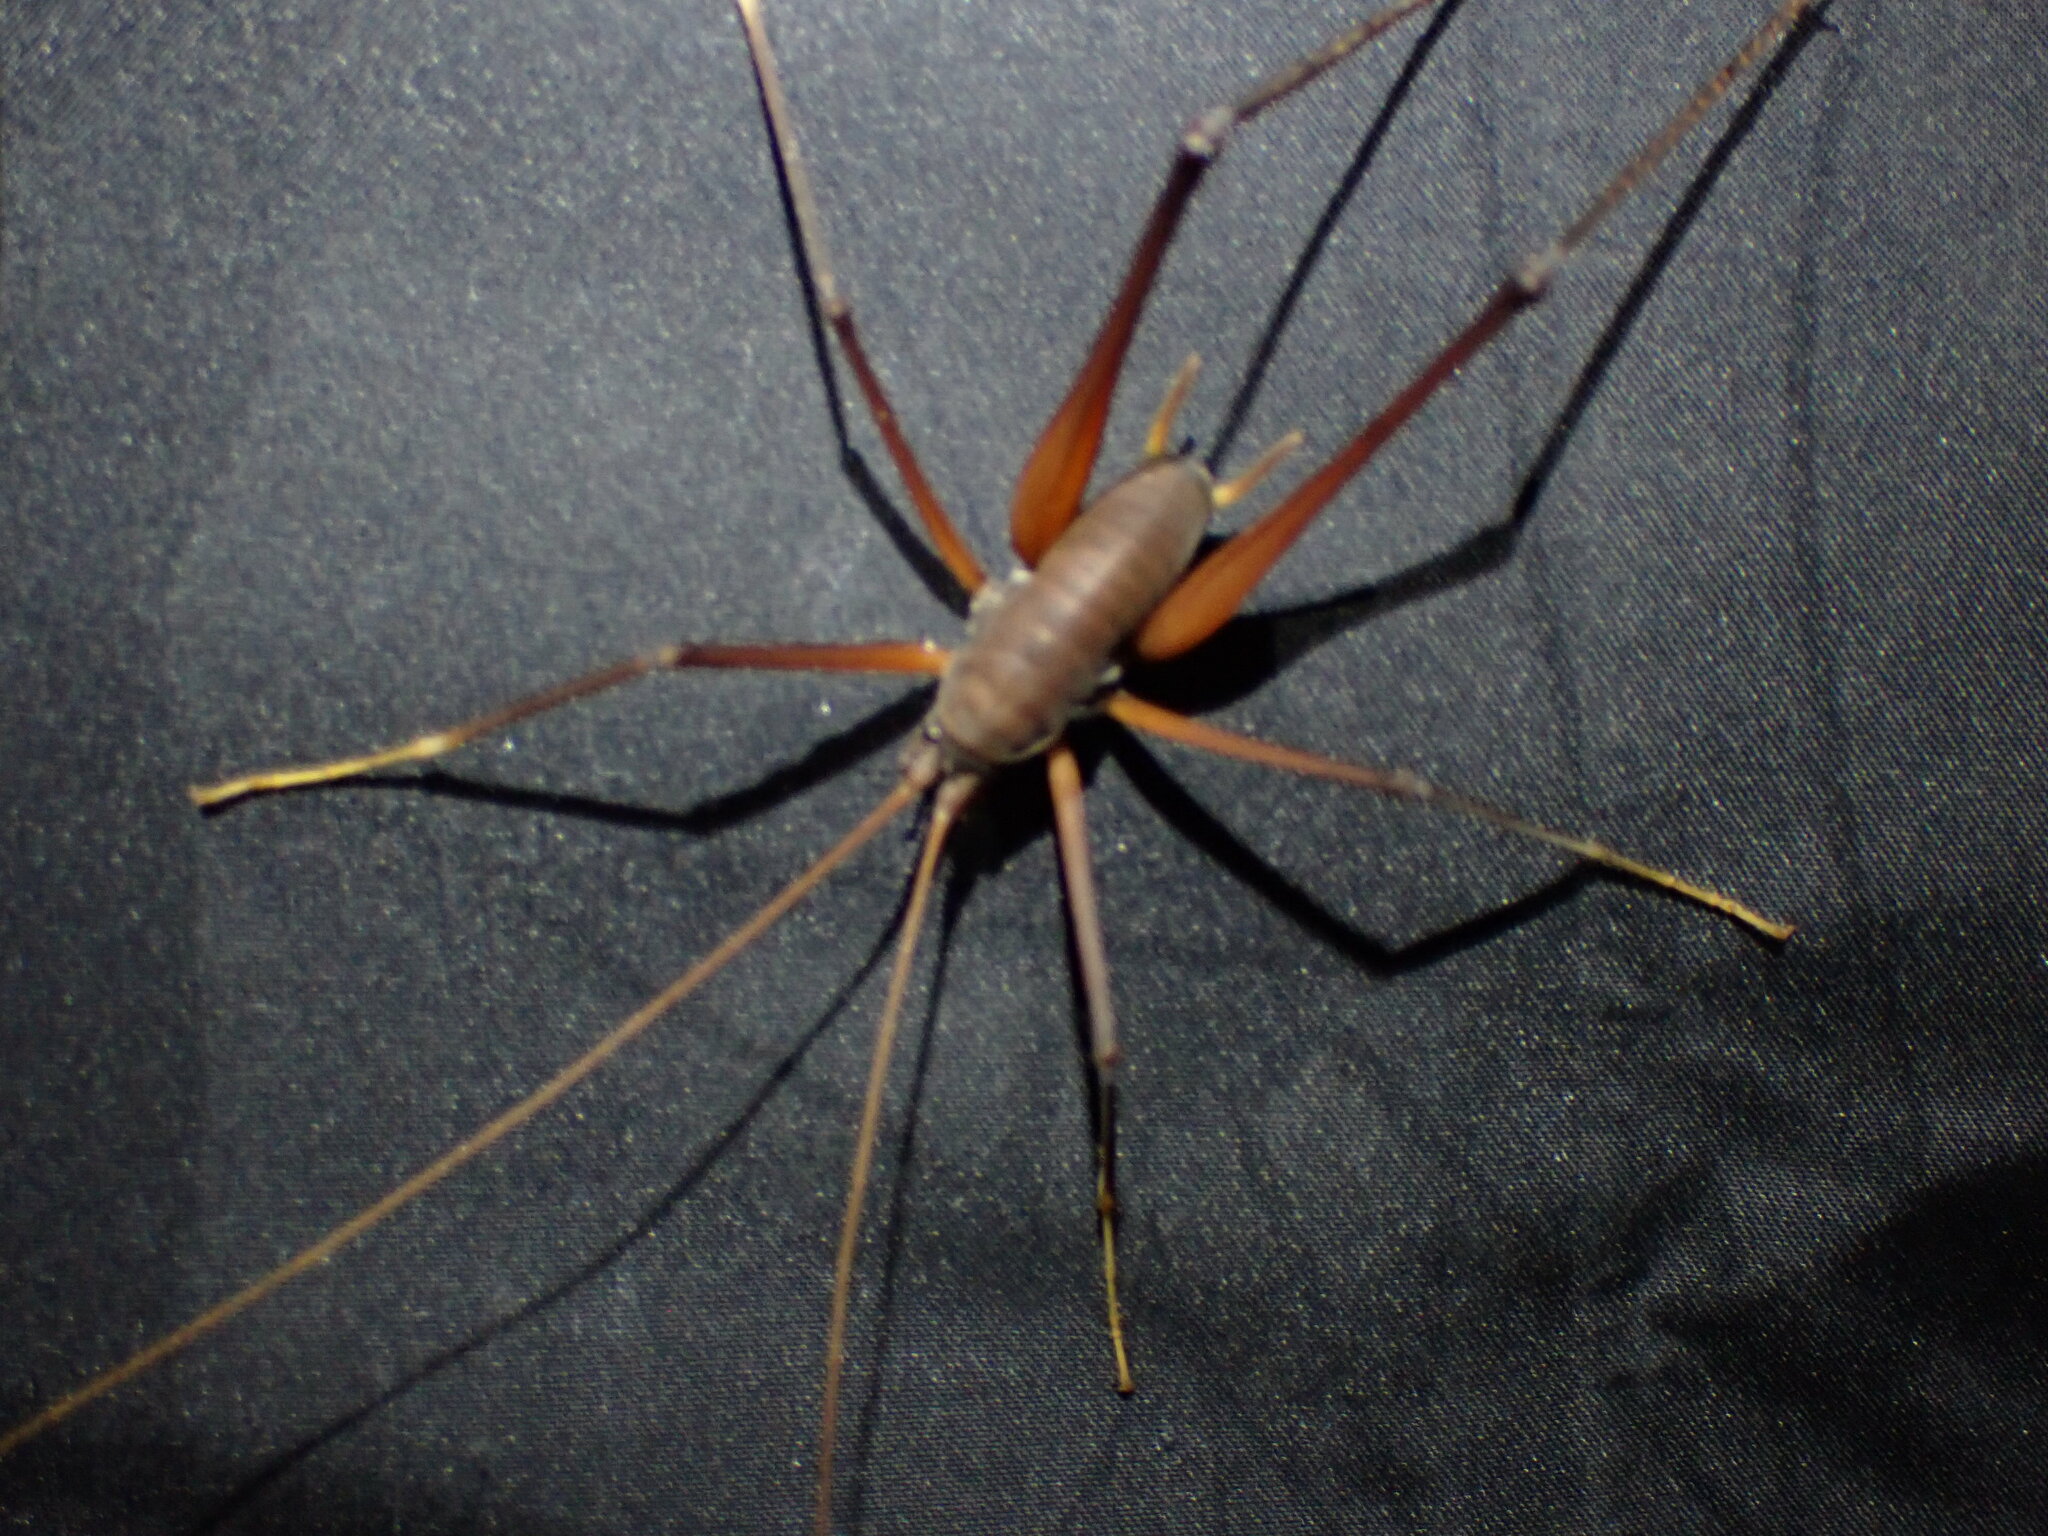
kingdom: Animalia
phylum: Arthropoda
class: Insecta
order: Orthoptera
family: Rhaphidophoridae
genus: Tropidischia
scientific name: Tropidischia xanthostoma
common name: Square-legged camel cricket
